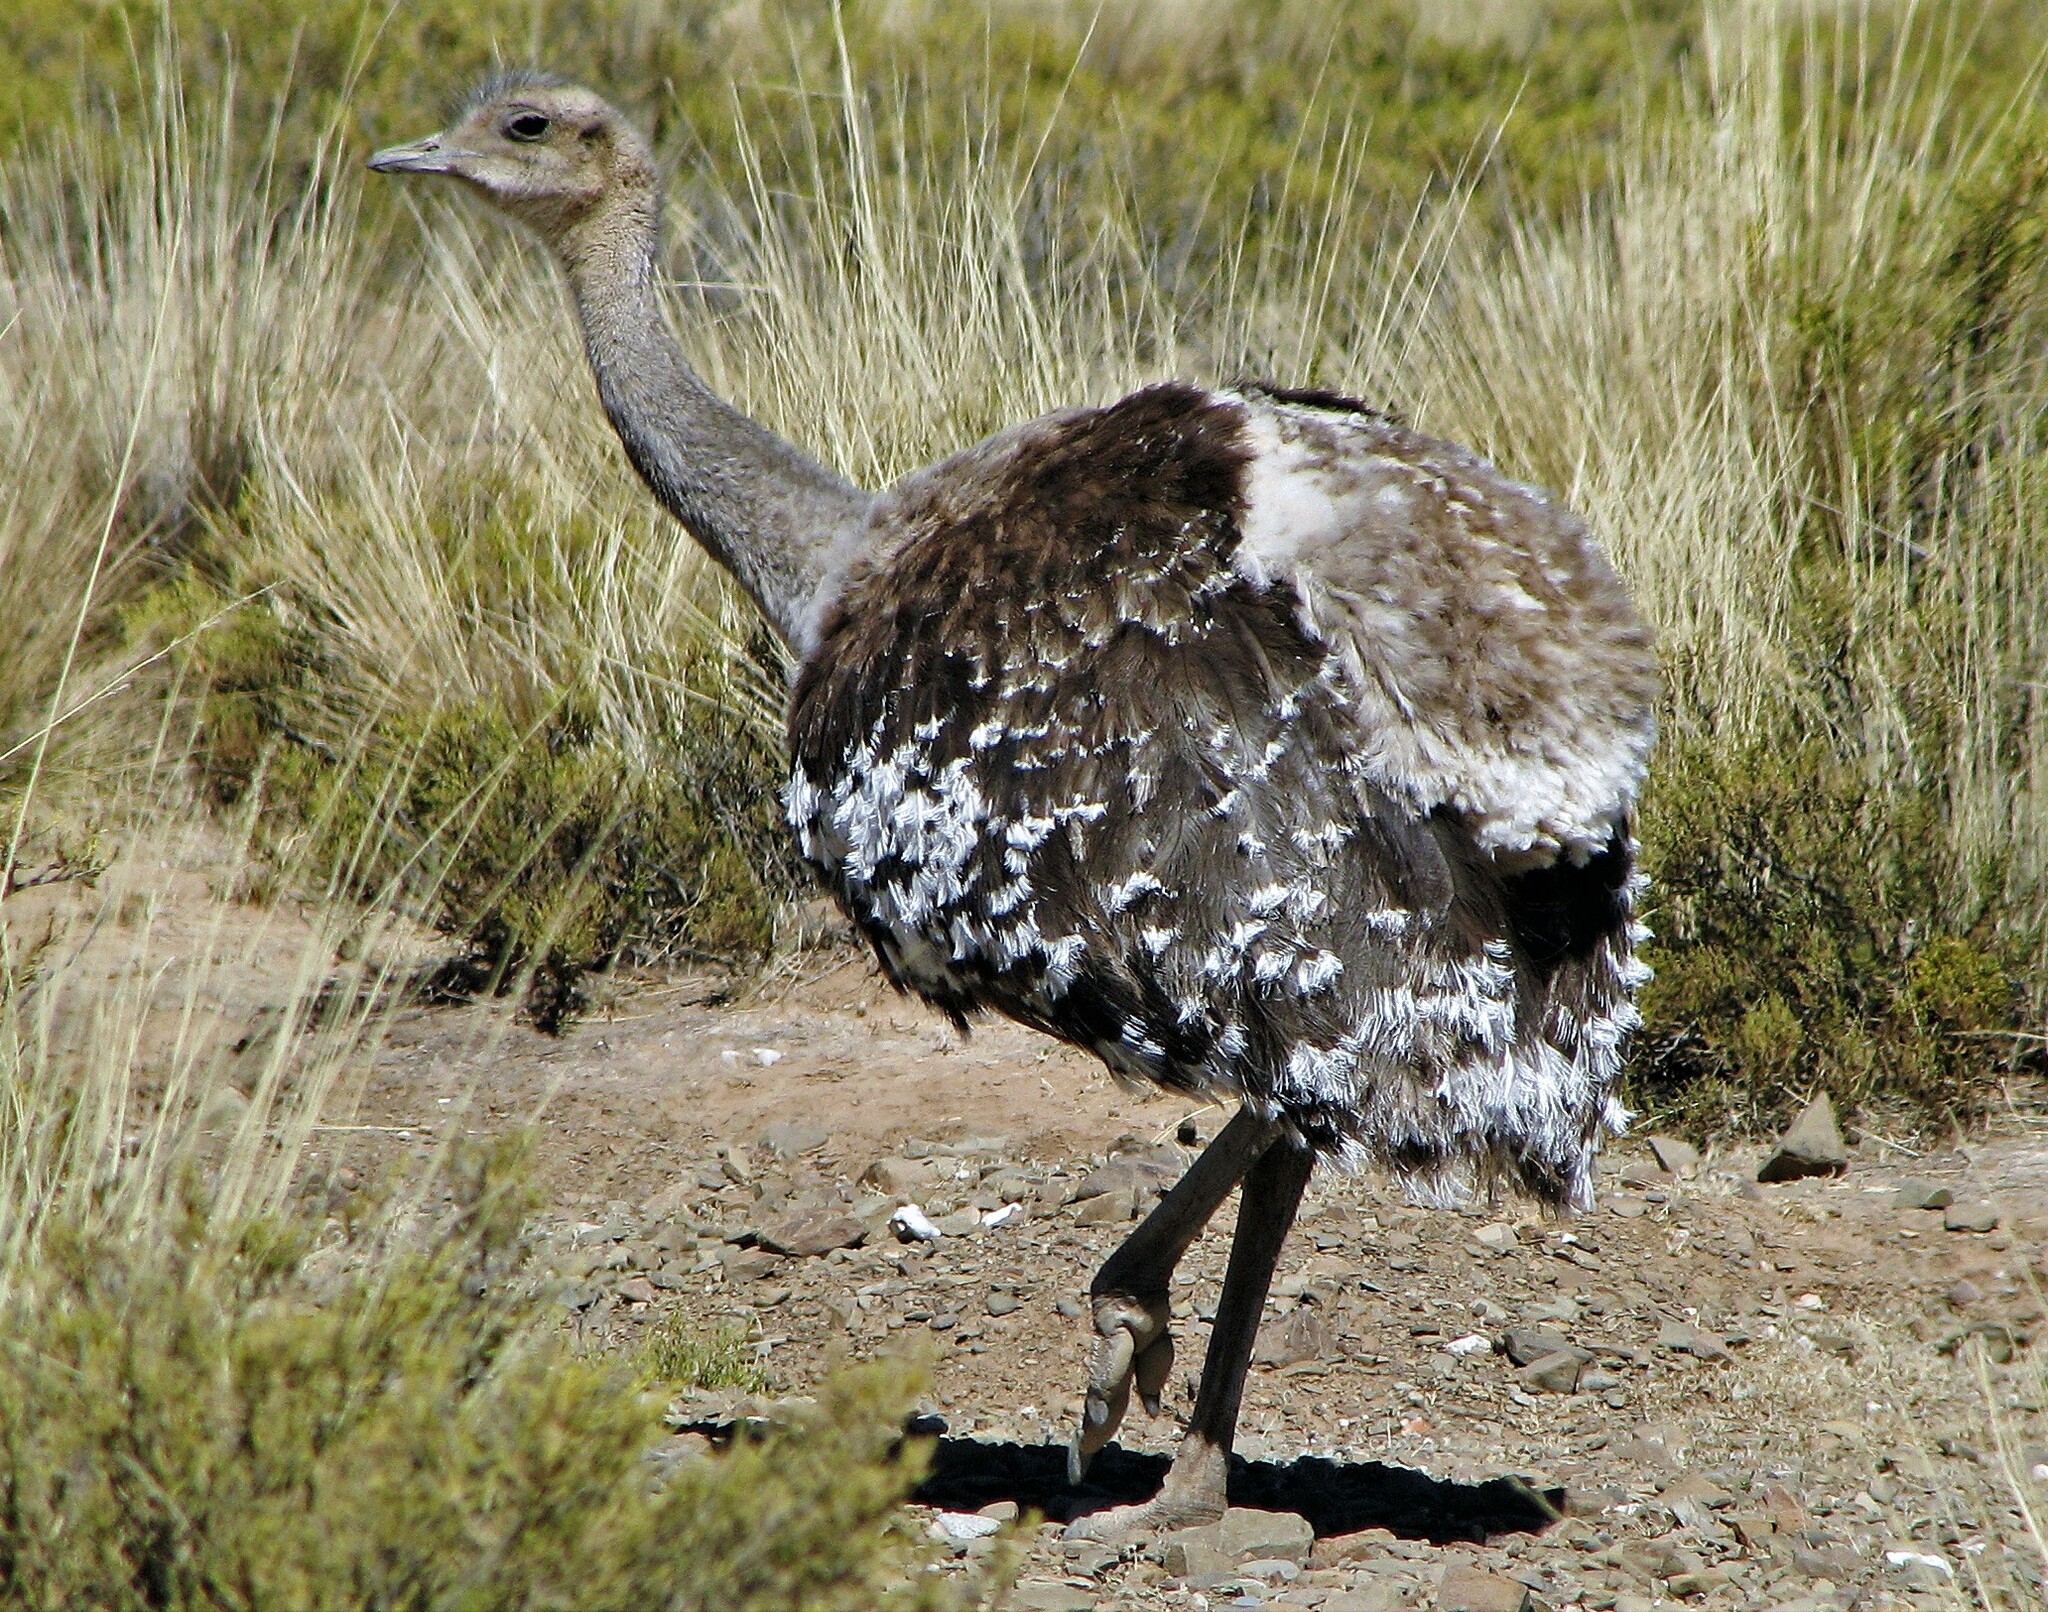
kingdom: Animalia
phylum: Chordata
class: Aves
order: Rheiformes
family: Rheidae
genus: Rhea
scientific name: Rhea pennata
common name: Lesser rhea
